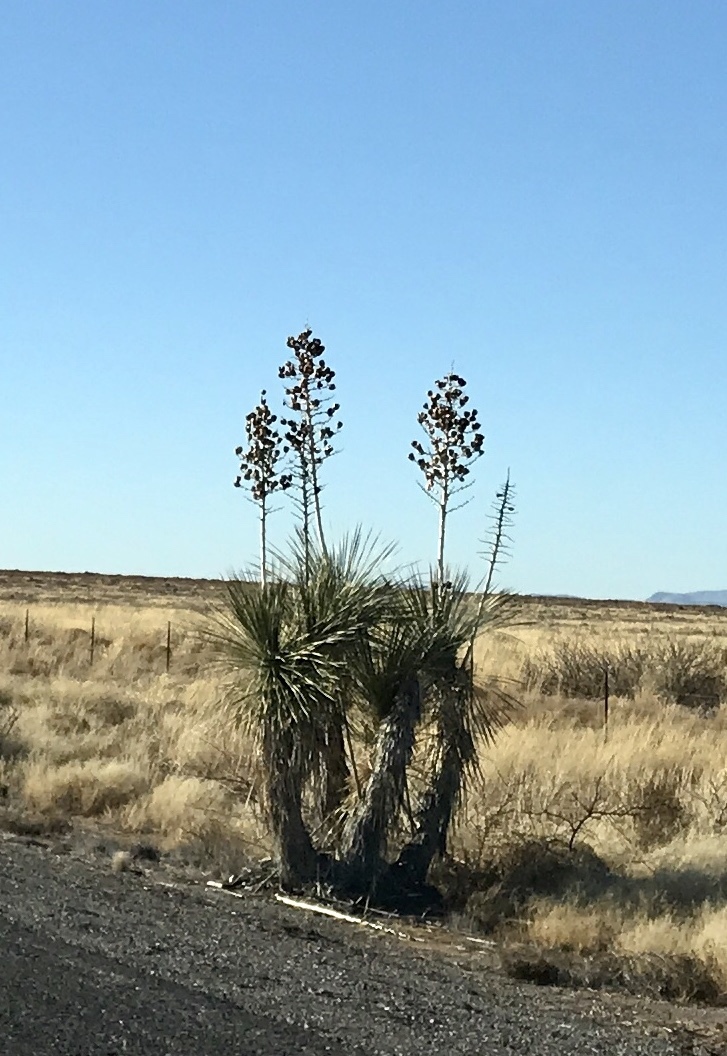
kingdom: Plantae
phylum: Tracheophyta
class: Liliopsida
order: Asparagales
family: Asparagaceae
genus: Yucca
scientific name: Yucca elata
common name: Palmella
